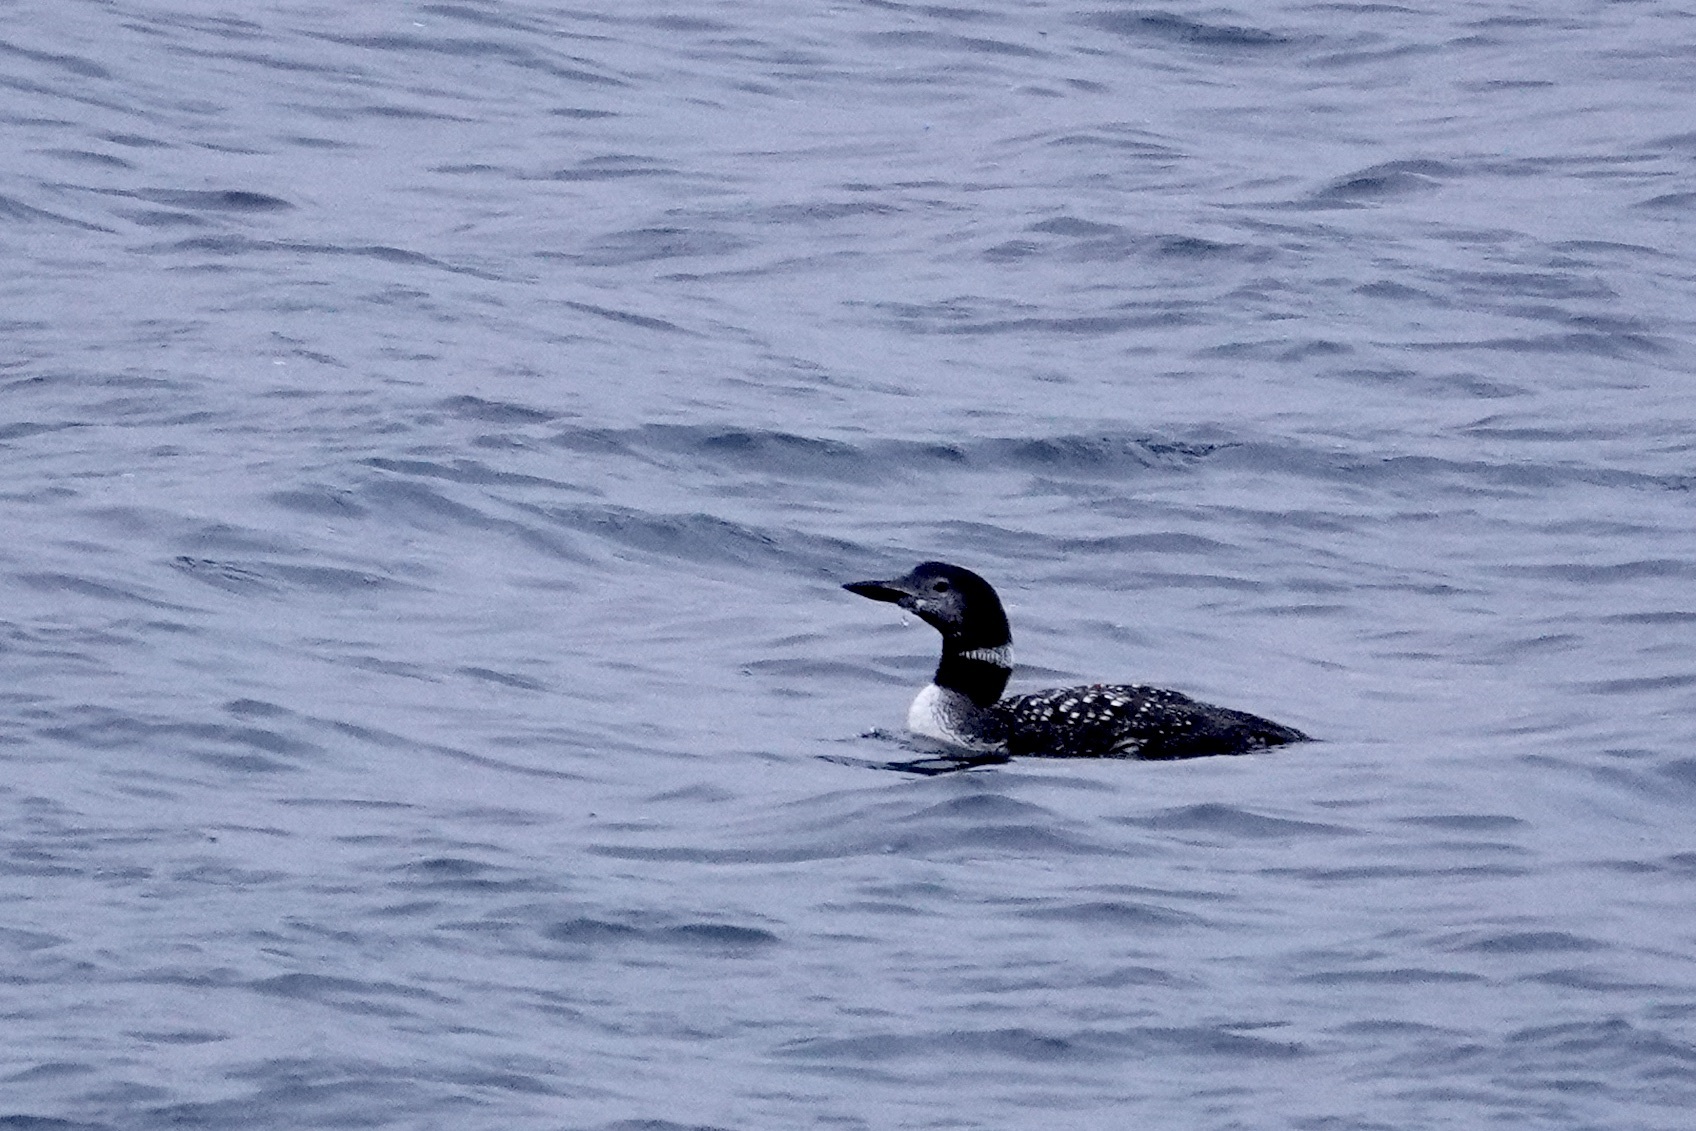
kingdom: Animalia
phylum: Chordata
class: Aves
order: Gaviiformes
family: Gaviidae
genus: Gavia
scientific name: Gavia immer
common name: Common loon
